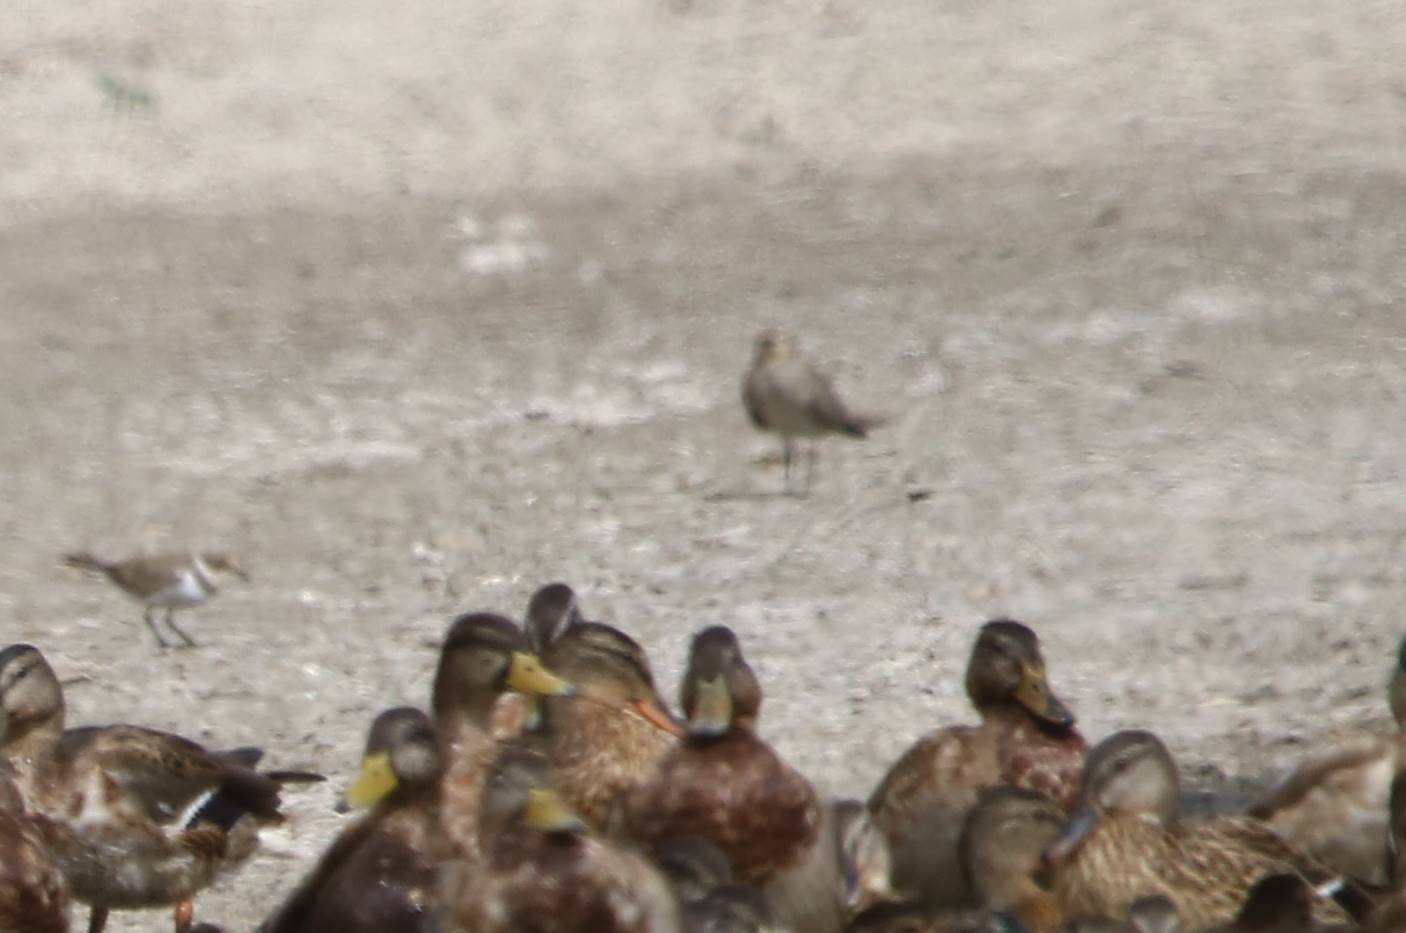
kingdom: Animalia
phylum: Chordata
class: Aves
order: Charadriiformes
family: Glareolidae
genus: Glareola
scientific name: Glareola pratincola
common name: Collared pratincole
